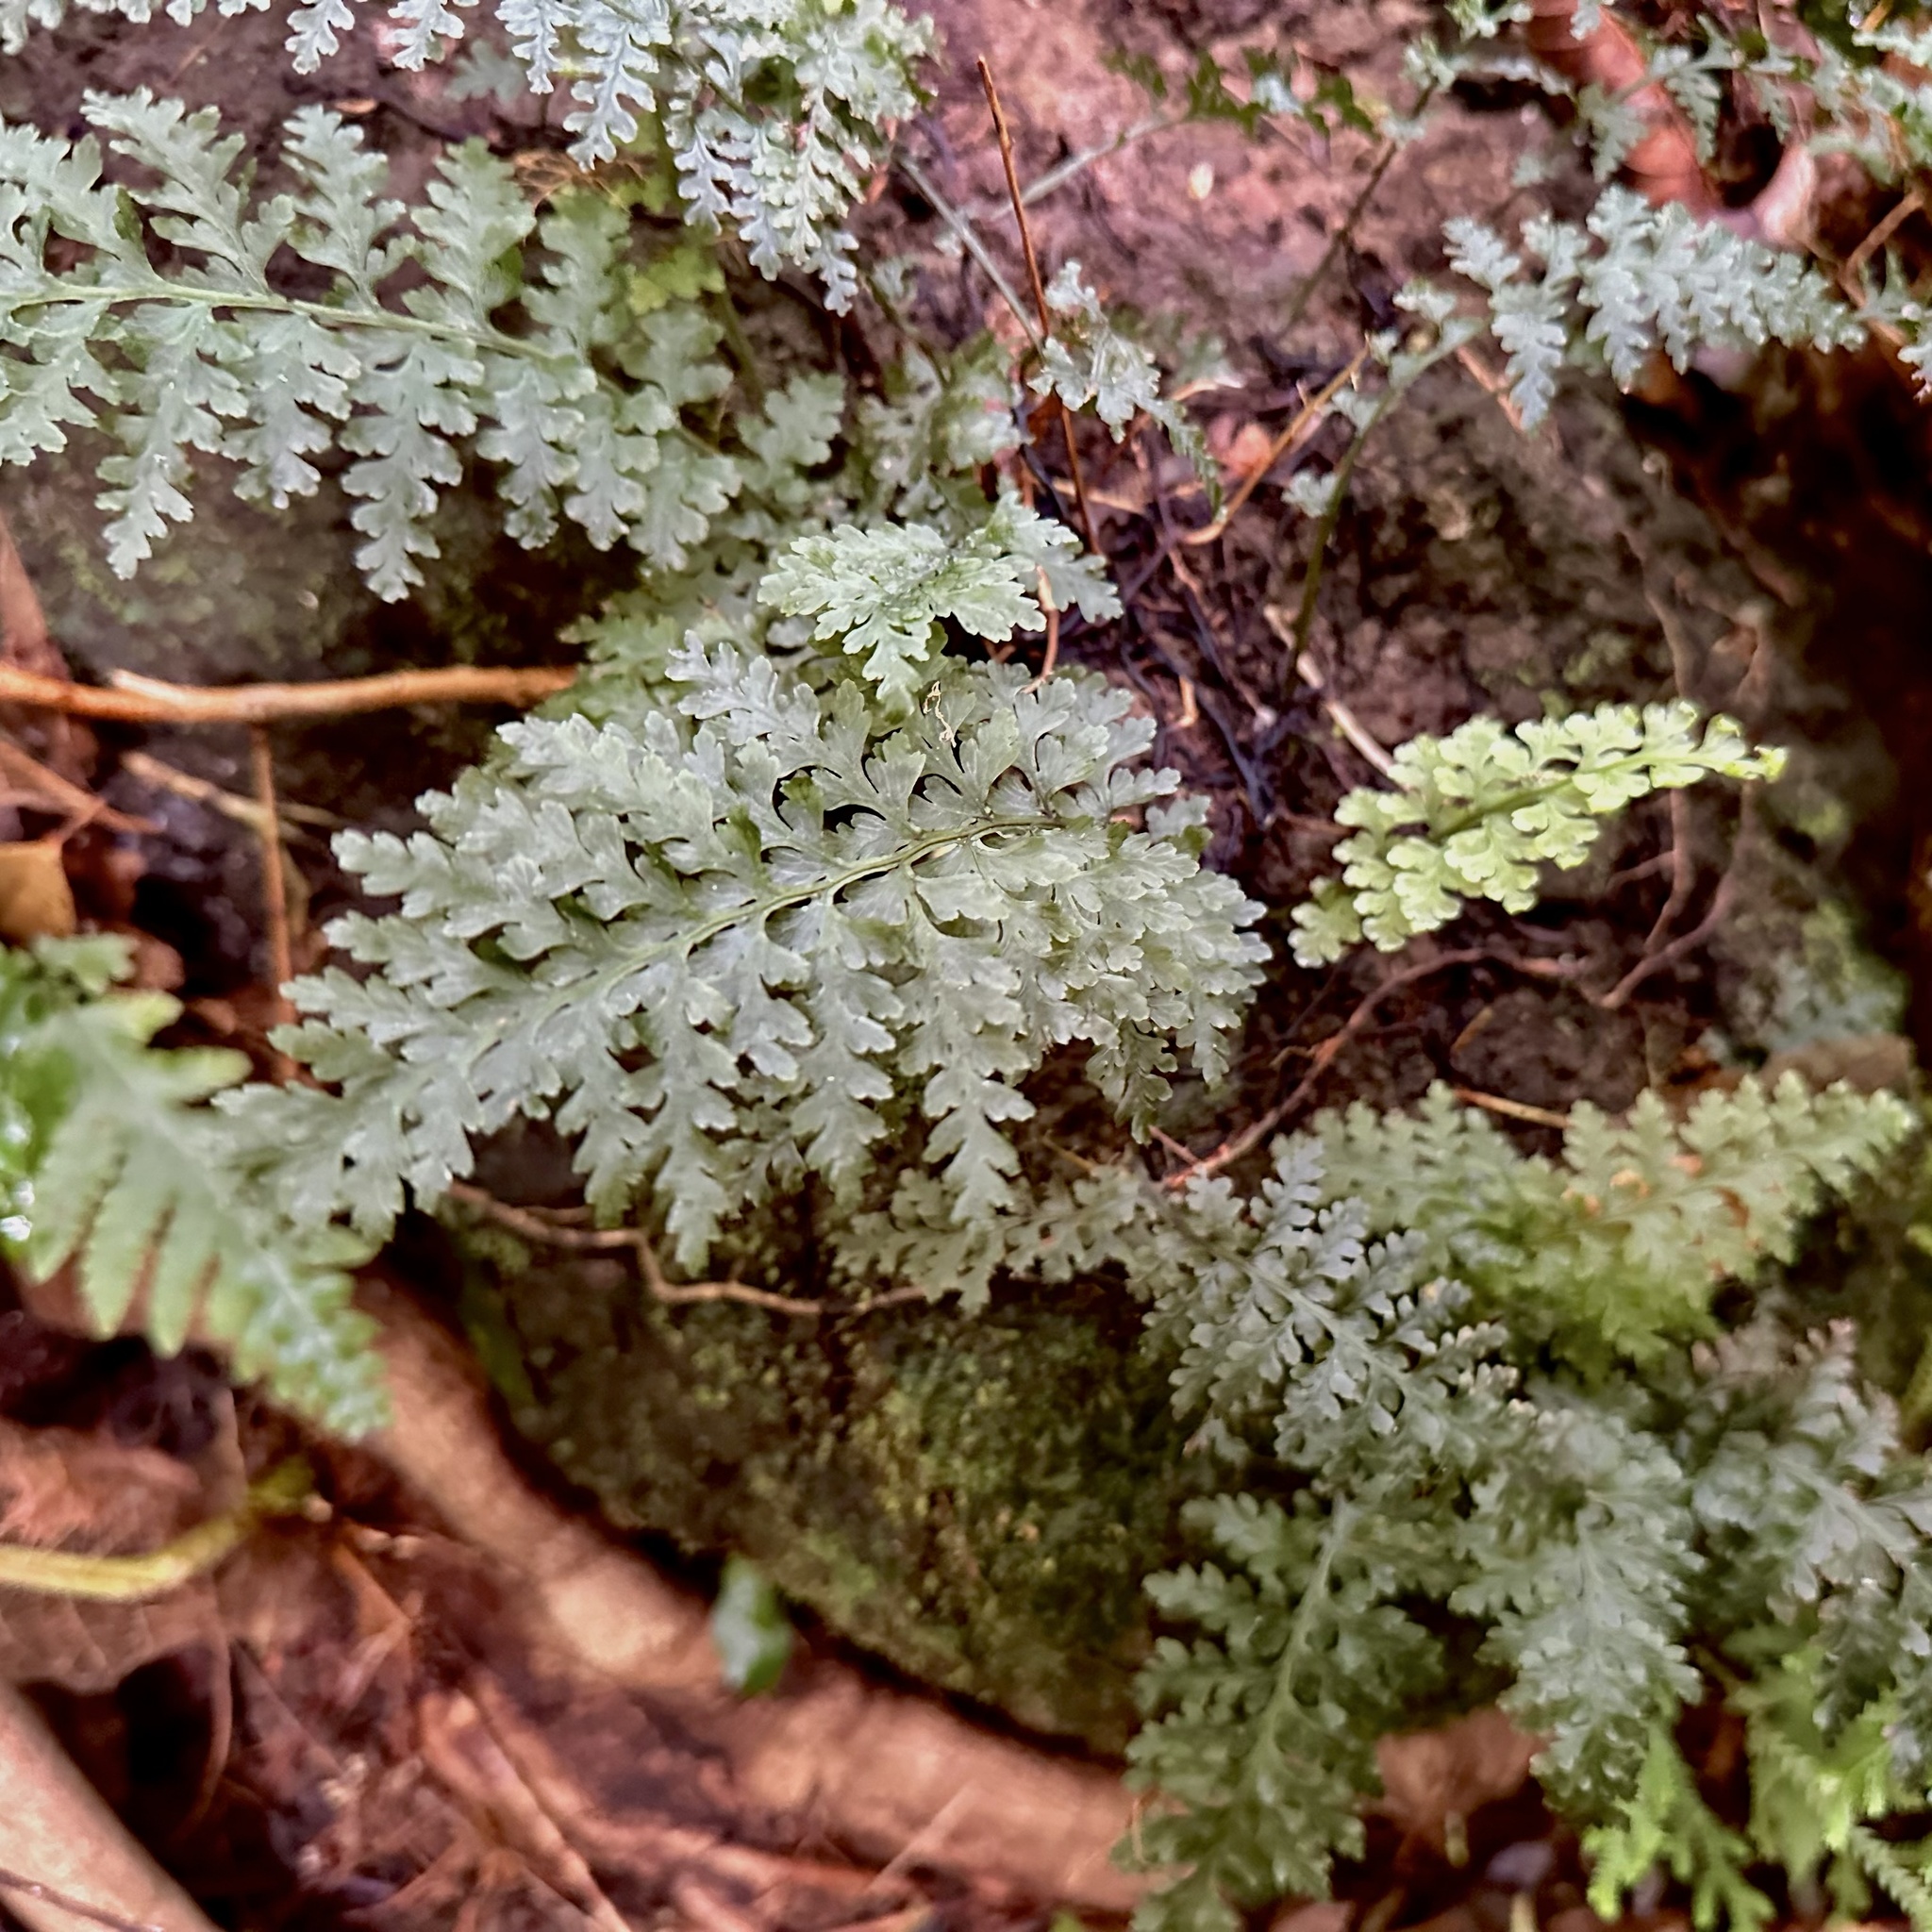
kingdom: Plantae
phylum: Tracheophyta
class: Polypodiopsida
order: Hymenophyllales
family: Hymenophyllaceae
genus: Vandenboschia
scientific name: Vandenboschia davallioides
